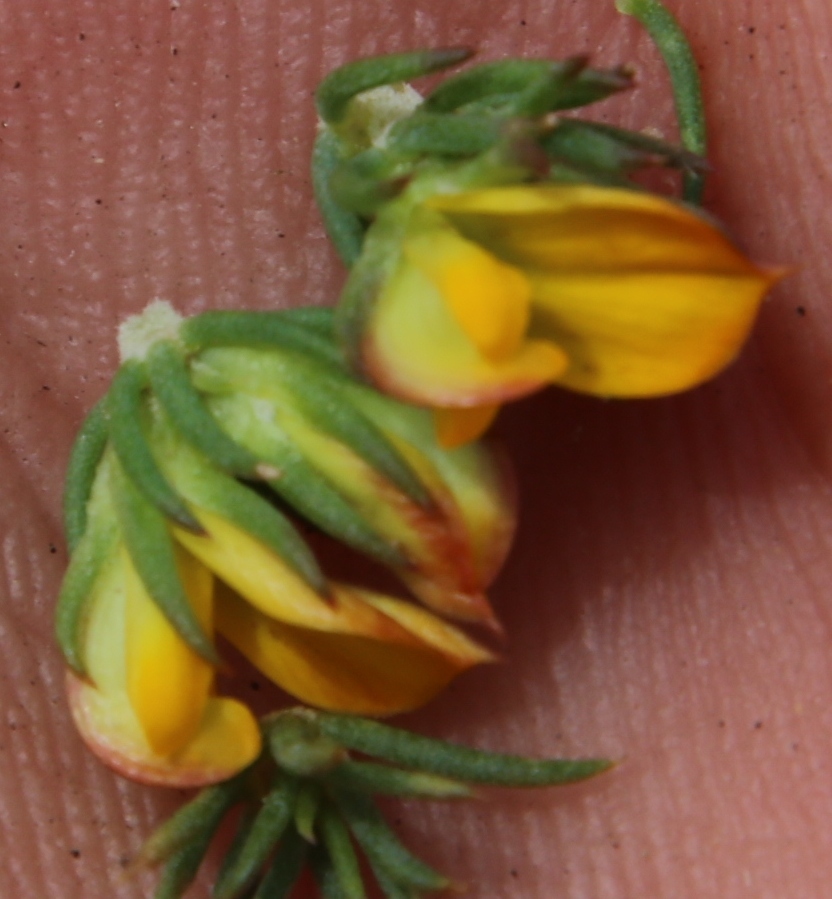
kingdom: Plantae
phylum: Tracheophyta
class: Magnoliopsida
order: Fabales
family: Fabaceae
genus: Aspalathus
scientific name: Aspalathus juniperina
